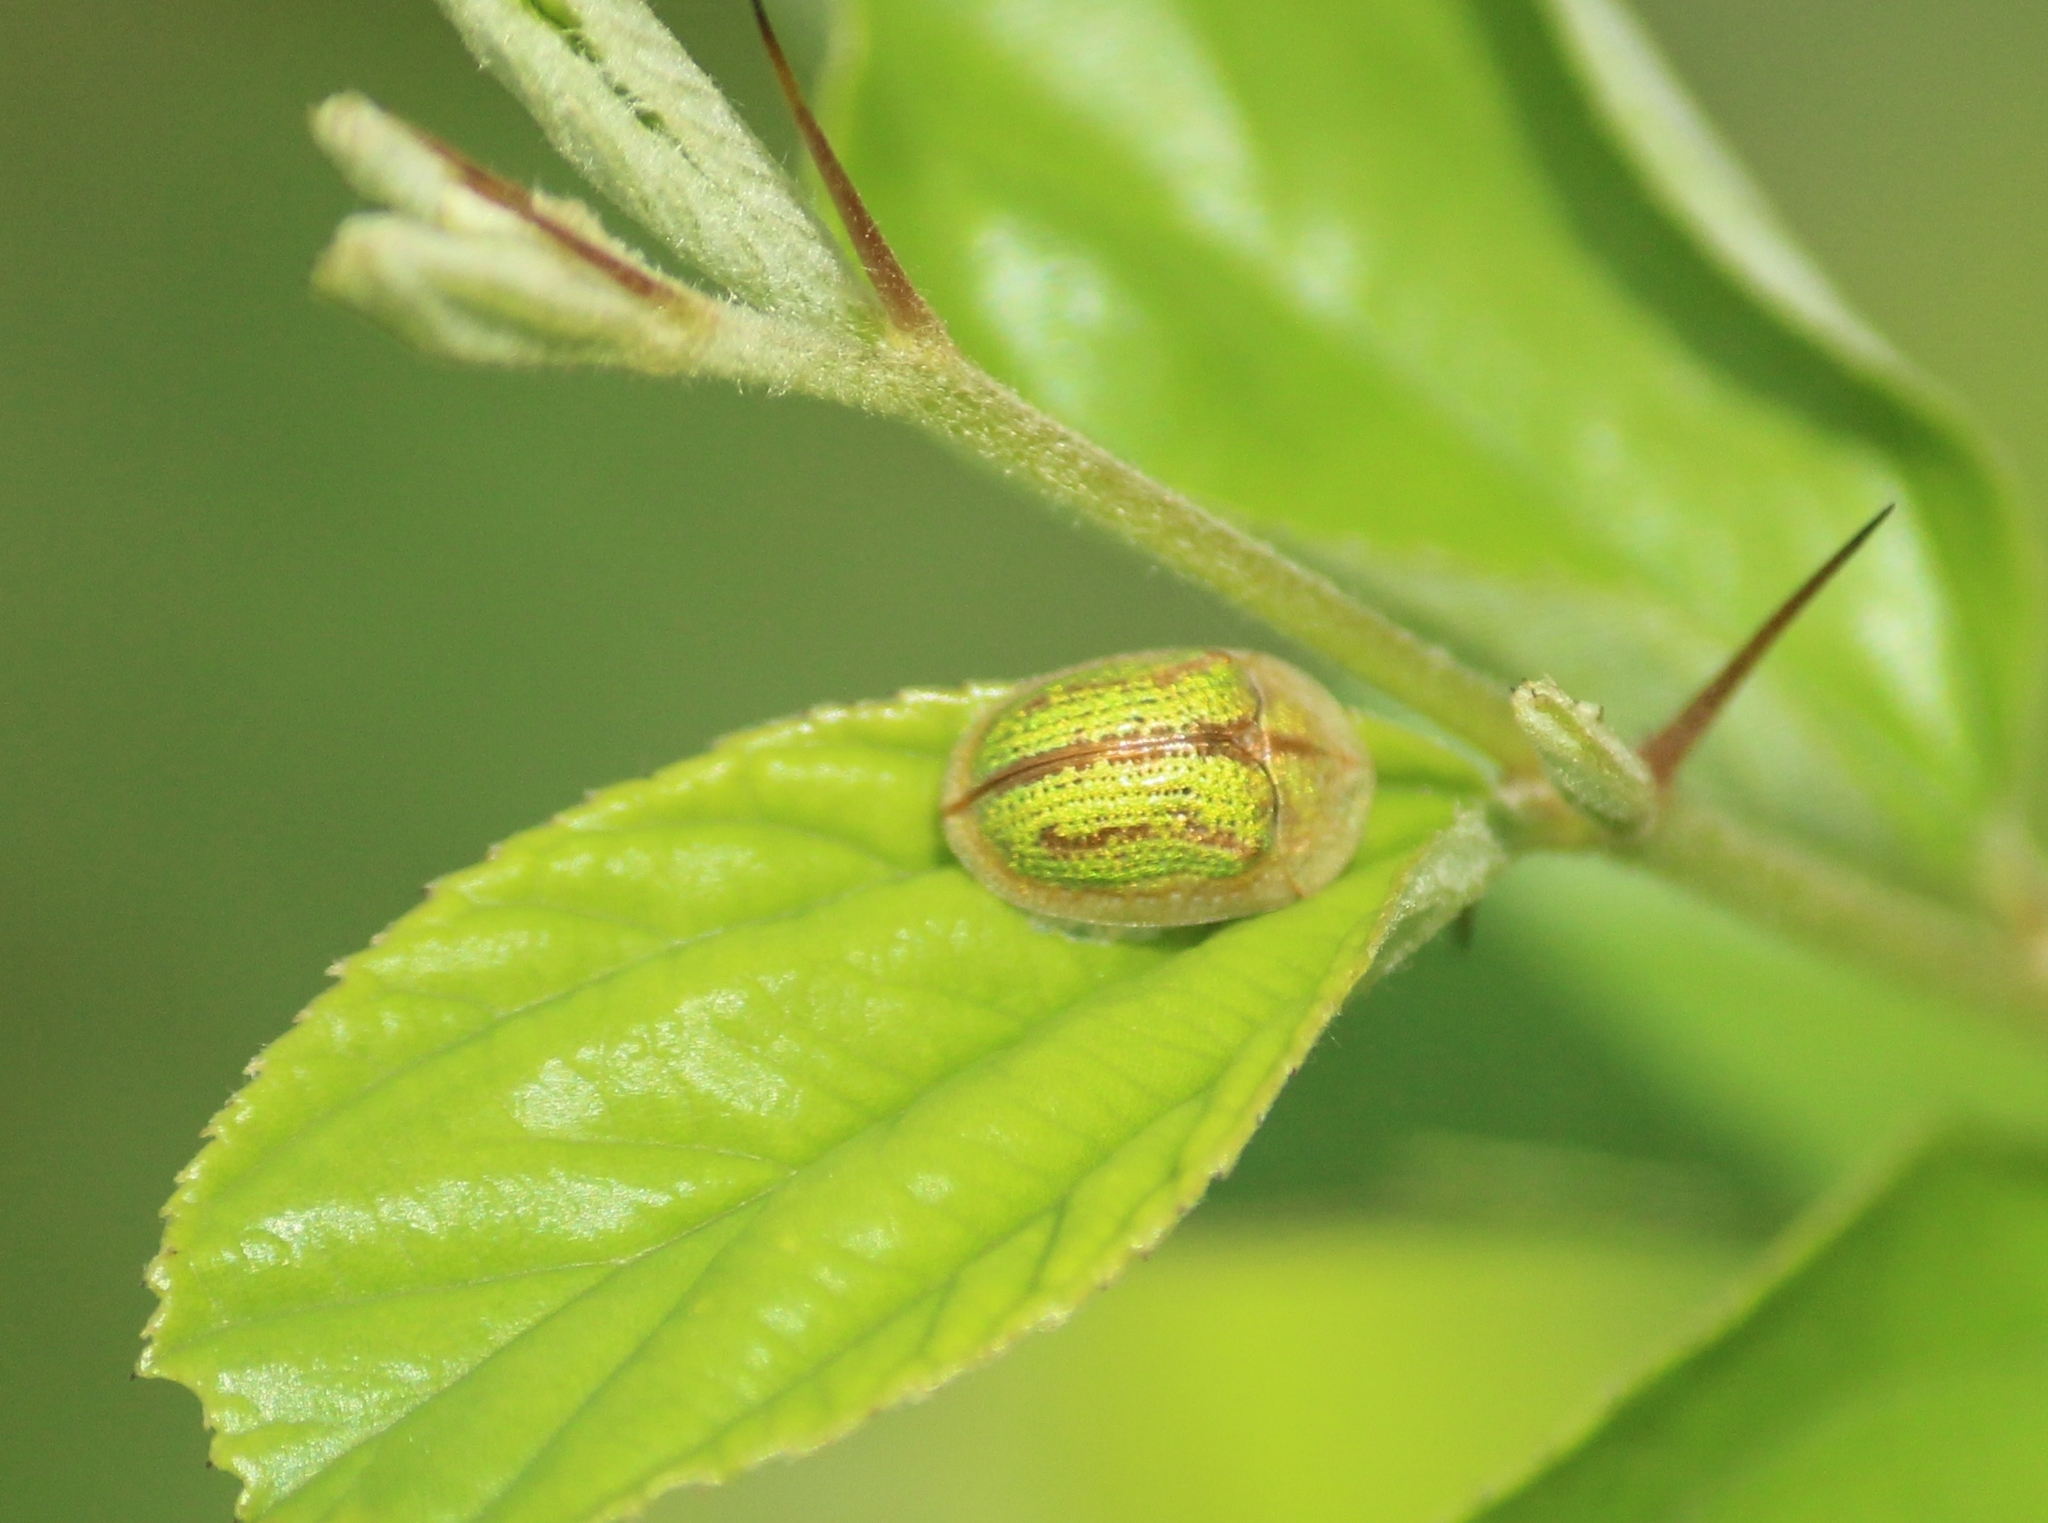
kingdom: Animalia
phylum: Arthropoda
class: Insecta
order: Coleoptera
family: Chrysomelidae
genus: Oocassida
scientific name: Oocassida cruenta
